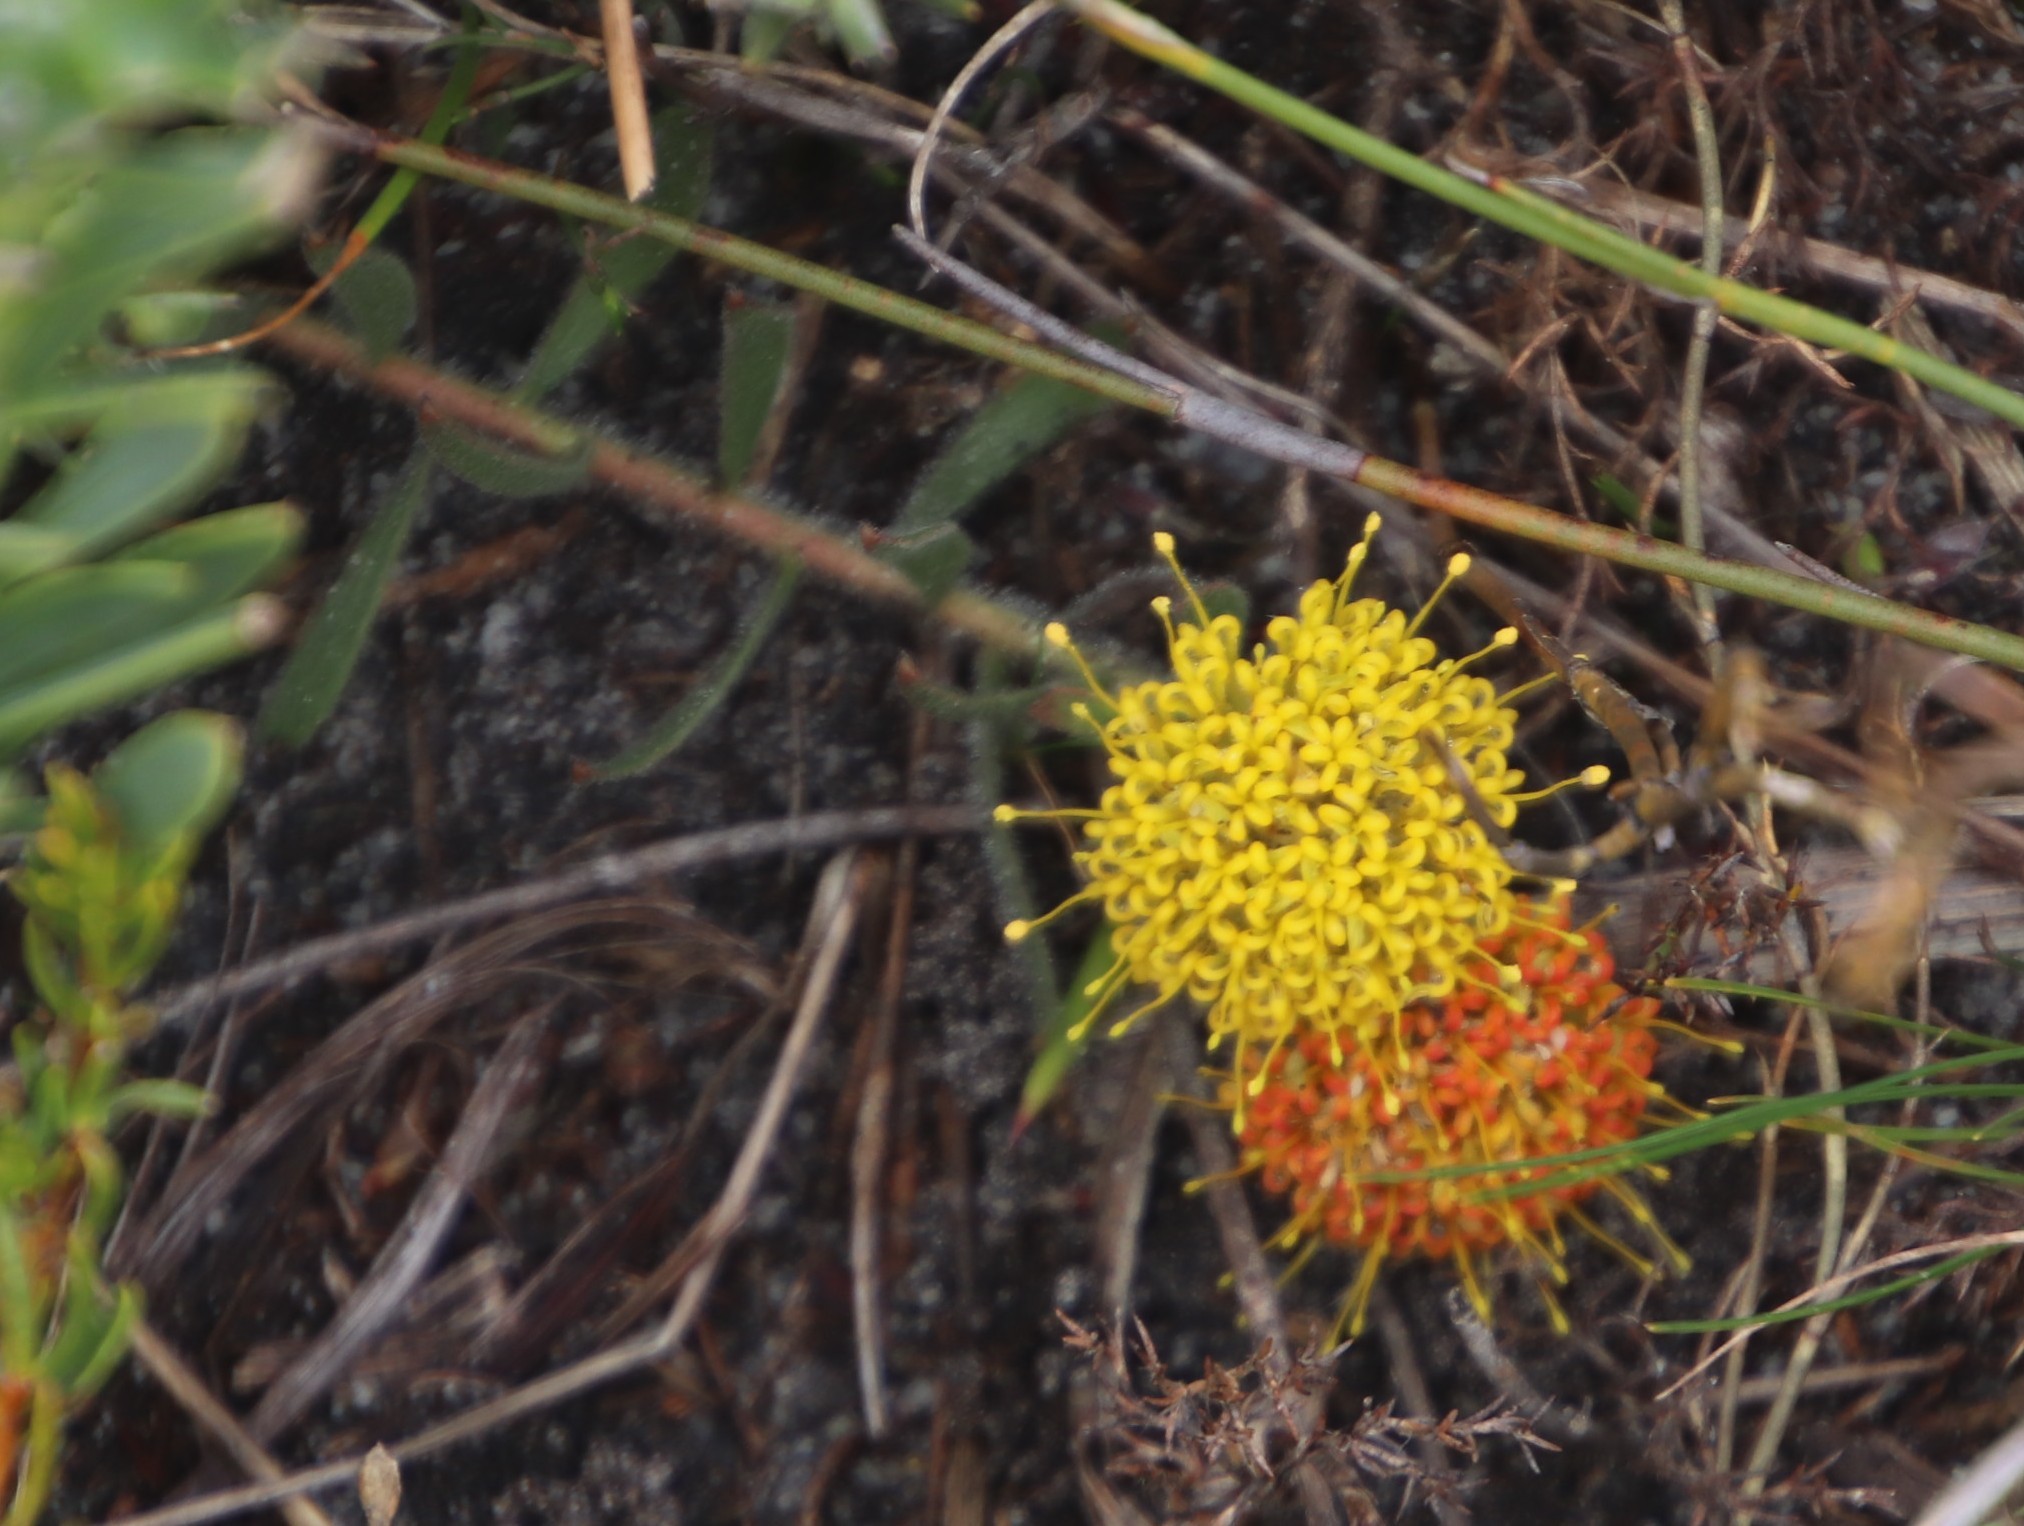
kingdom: Plantae
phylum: Tracheophyta
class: Magnoliopsida
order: Proteales
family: Proteaceae
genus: Leucospermum
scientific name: Leucospermum prostratum
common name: Yellow-trailing pincushion
